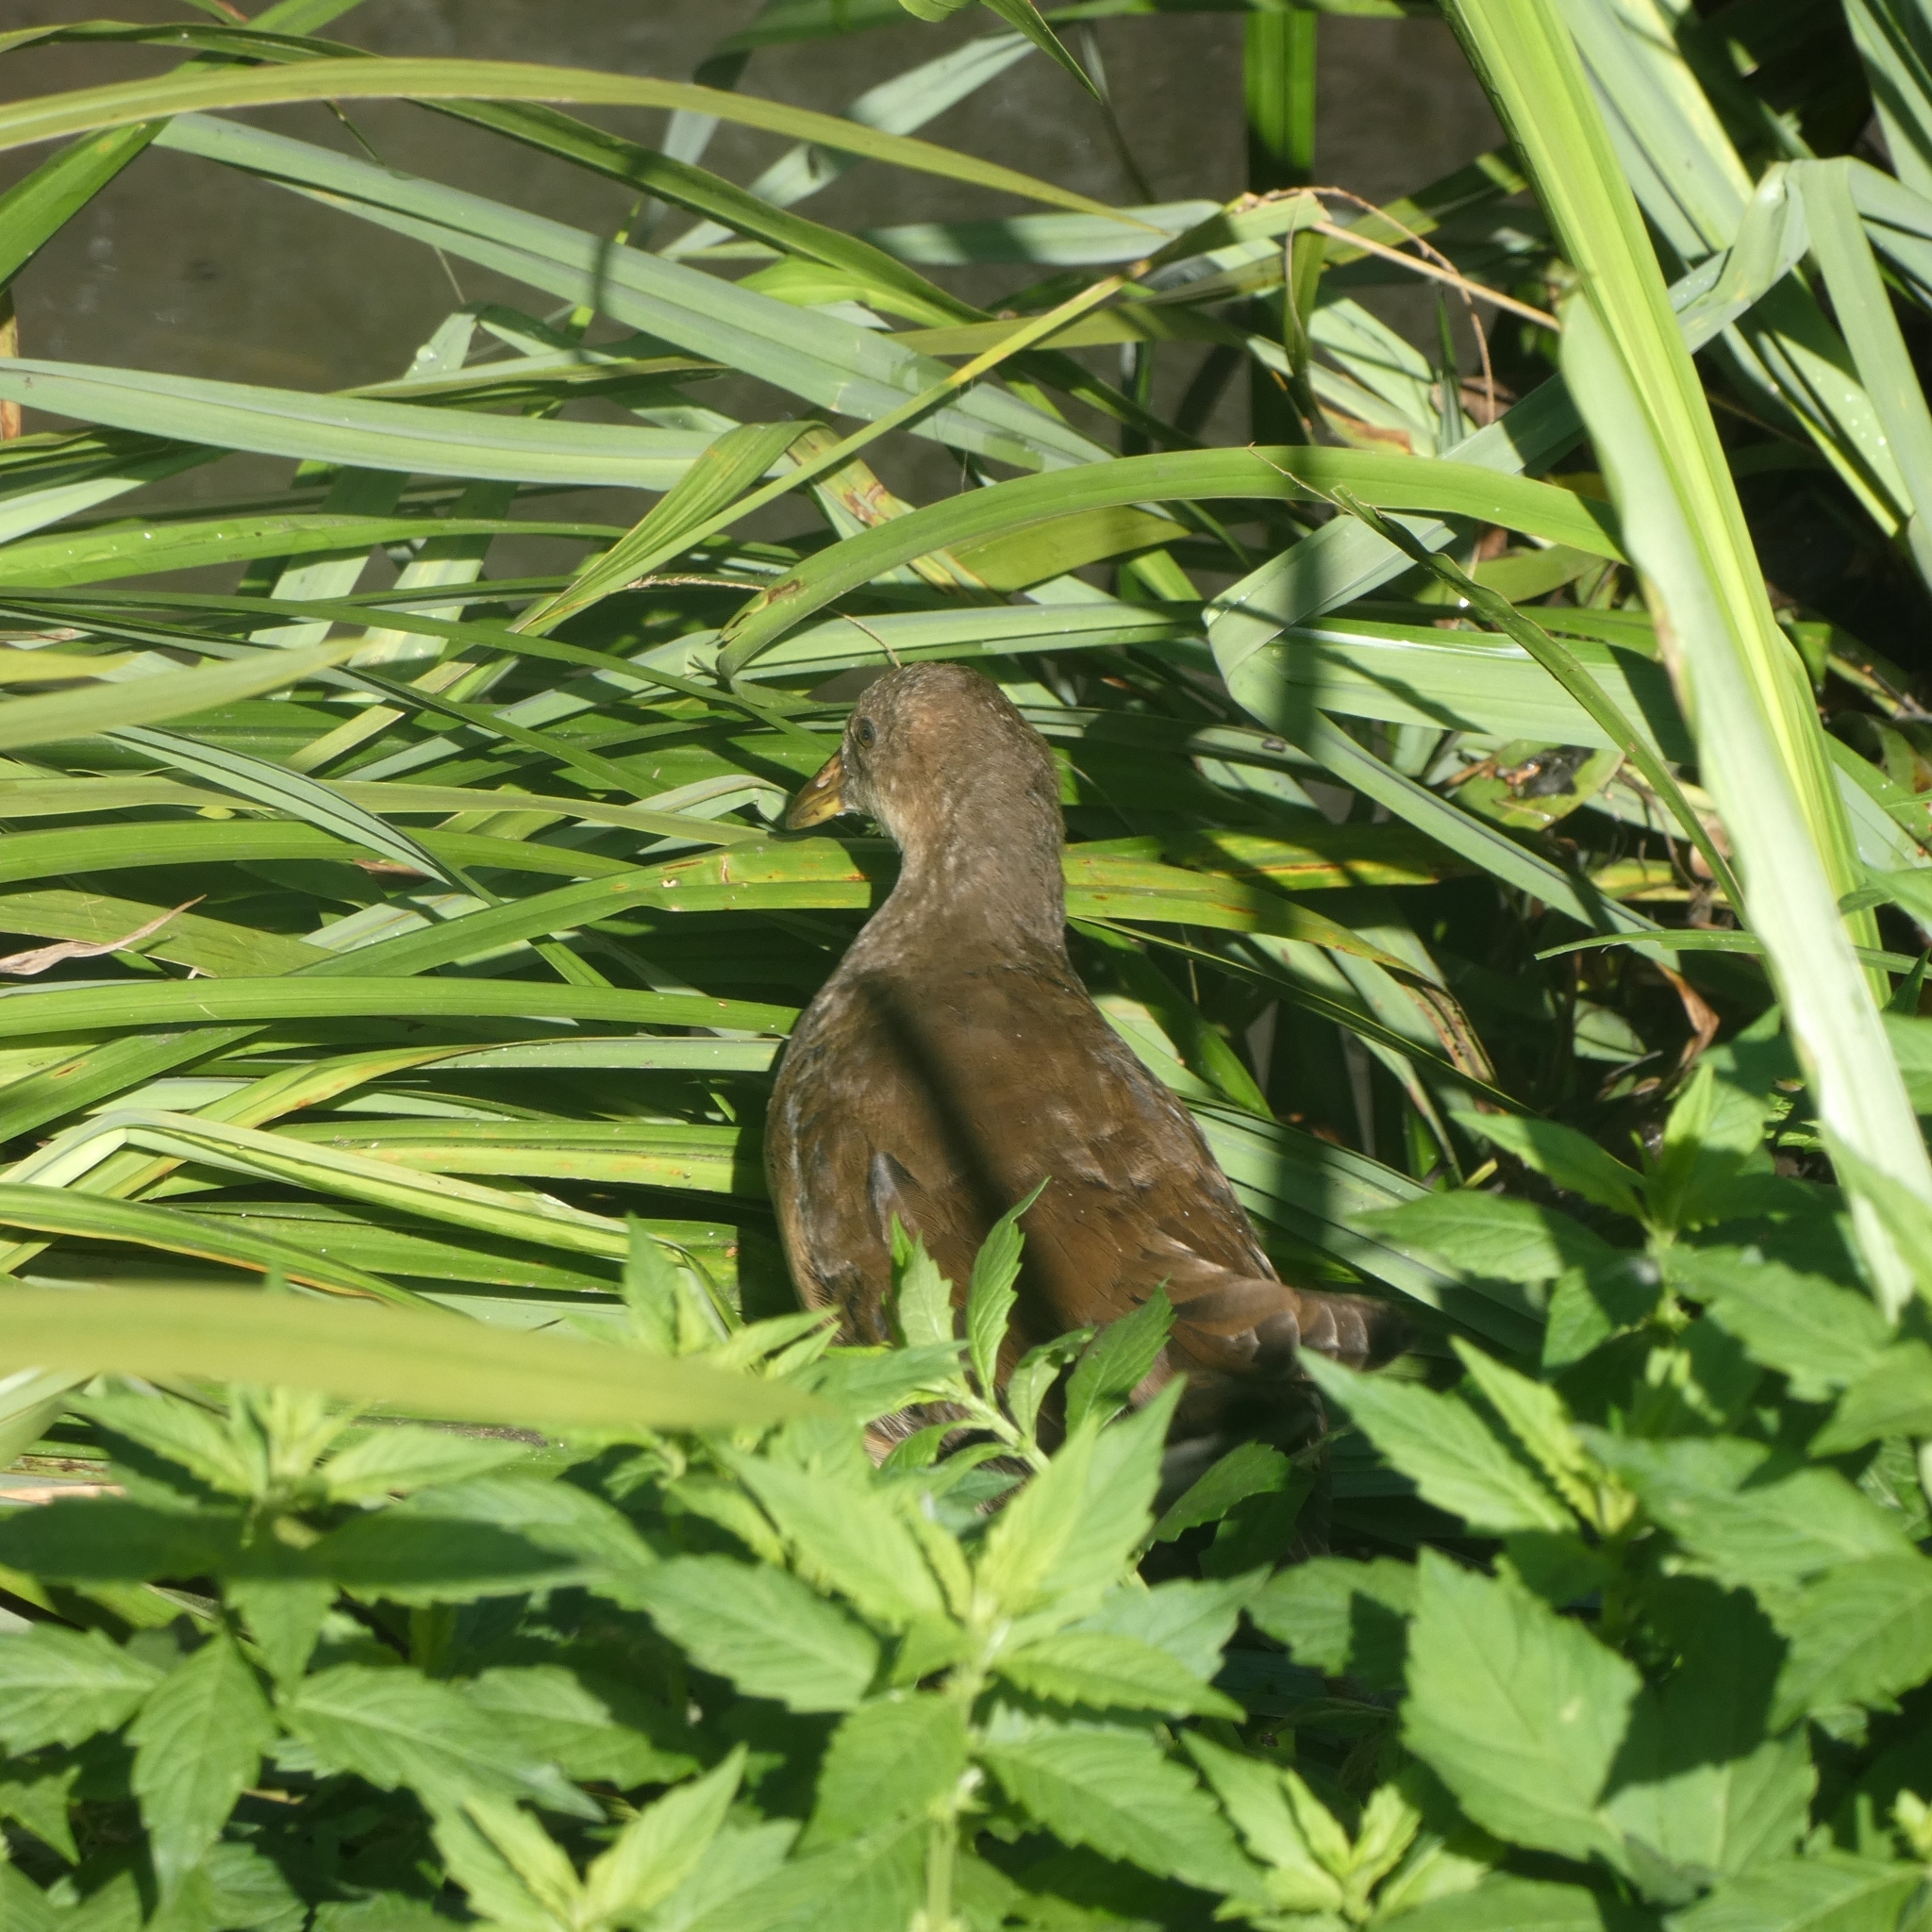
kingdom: Animalia
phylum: Chordata
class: Aves
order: Gruiformes
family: Rallidae
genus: Gallinula
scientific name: Gallinula chloropus
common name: Common moorhen
